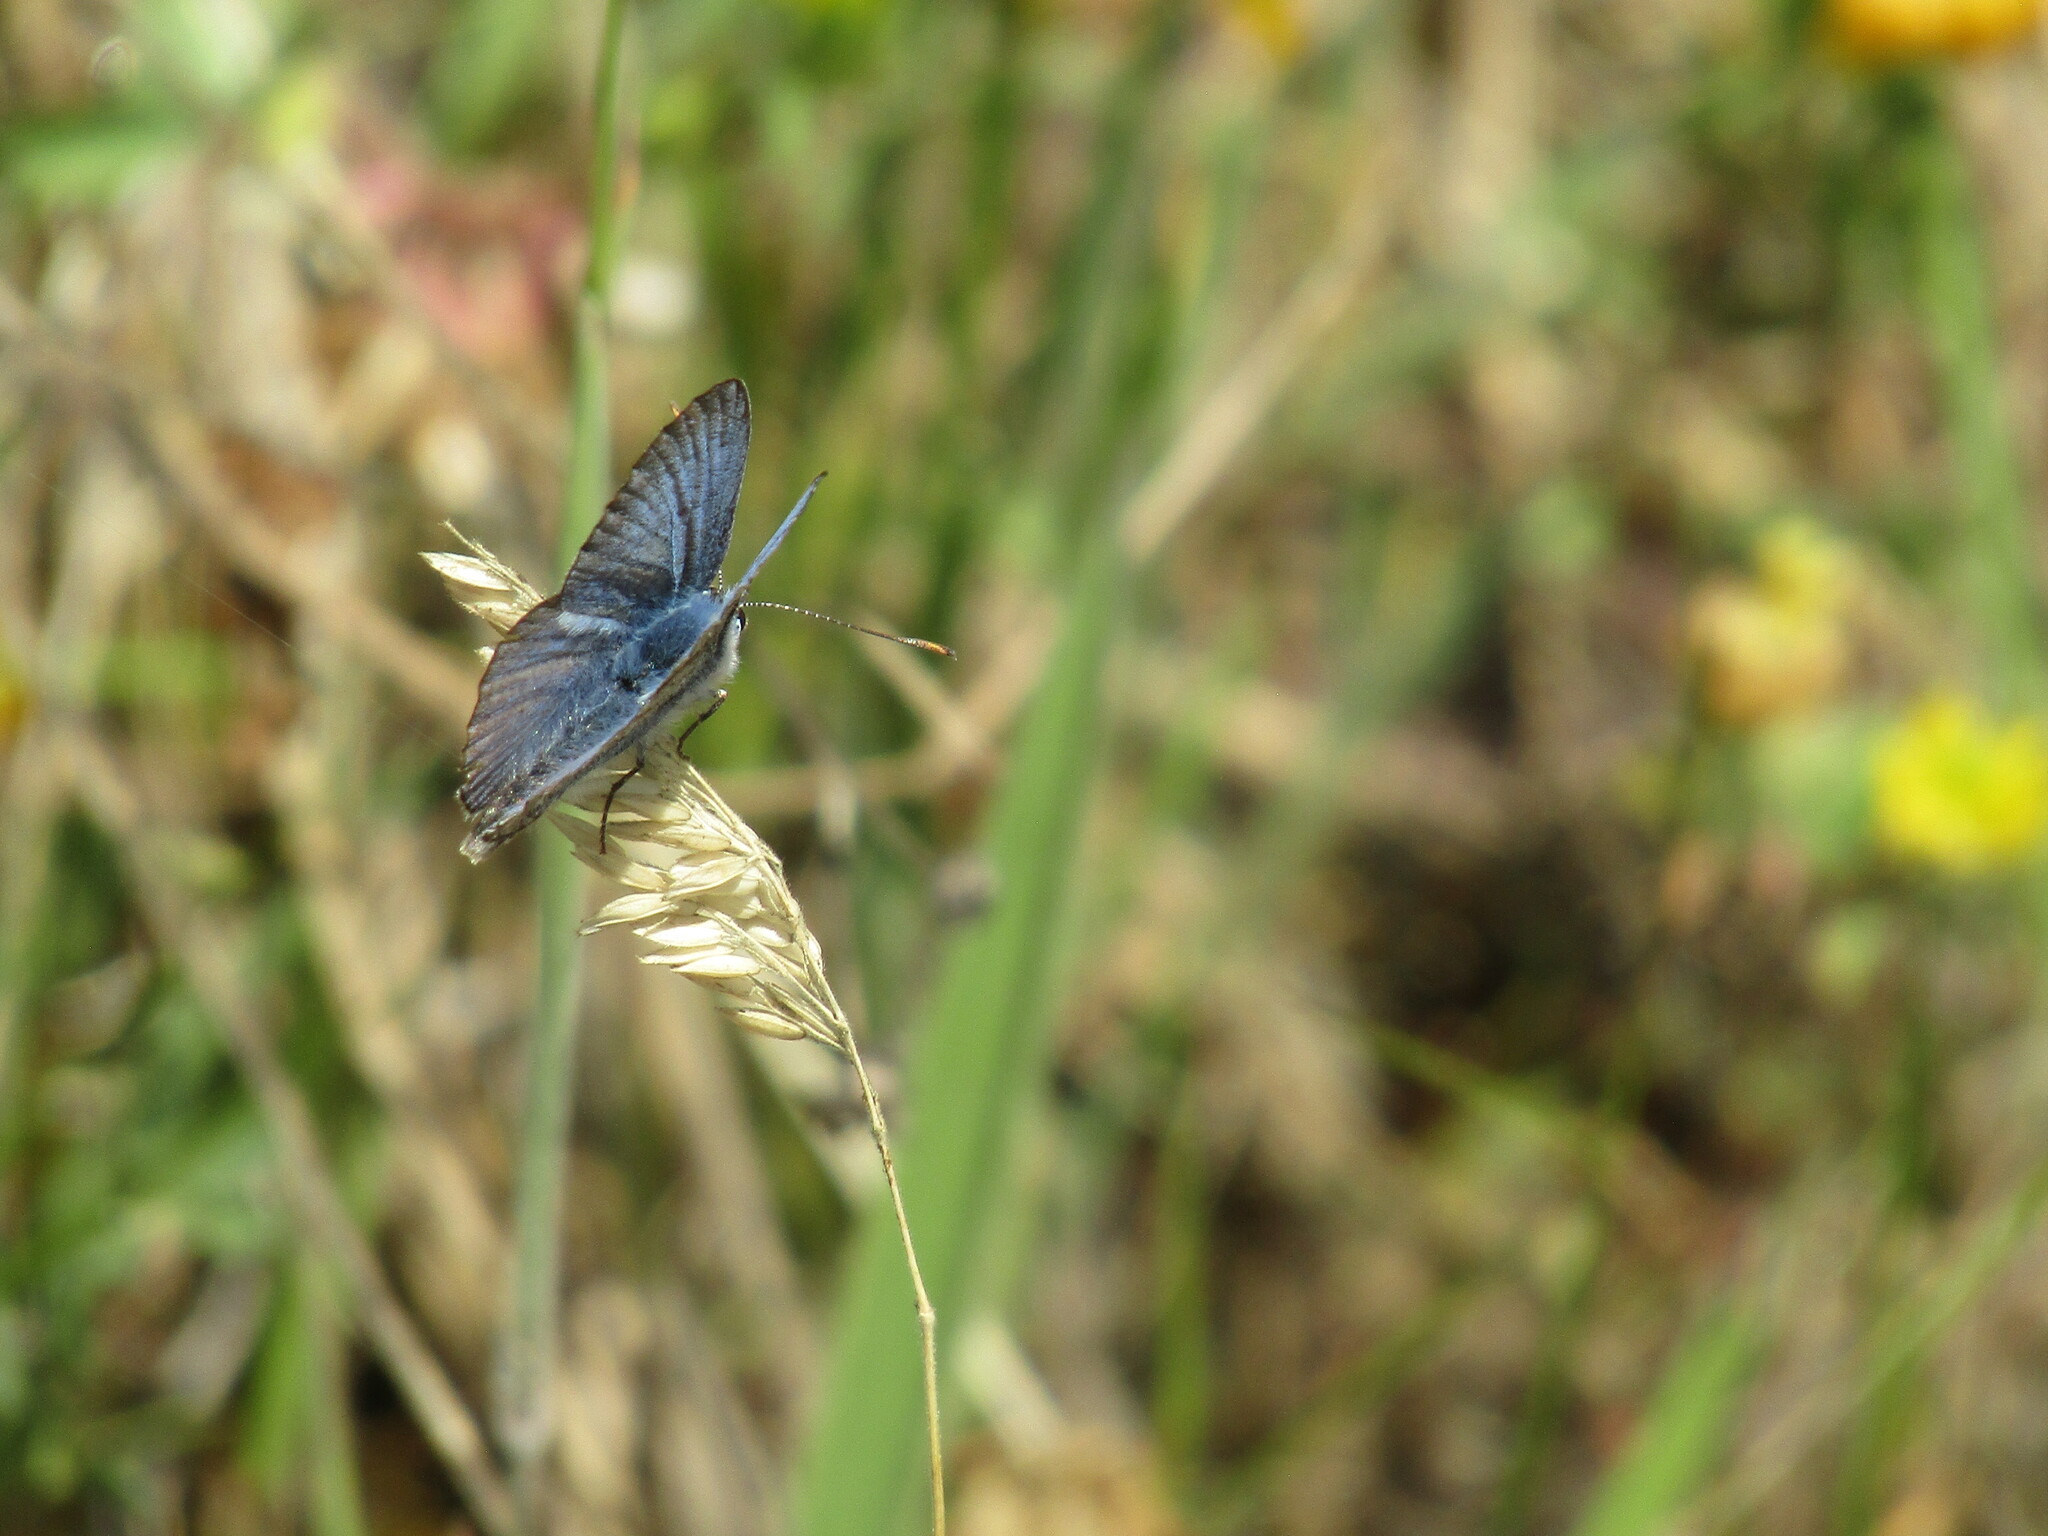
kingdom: Animalia
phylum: Arthropoda
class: Insecta
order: Lepidoptera
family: Lycaenidae
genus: Polyommatus
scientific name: Polyommatus
